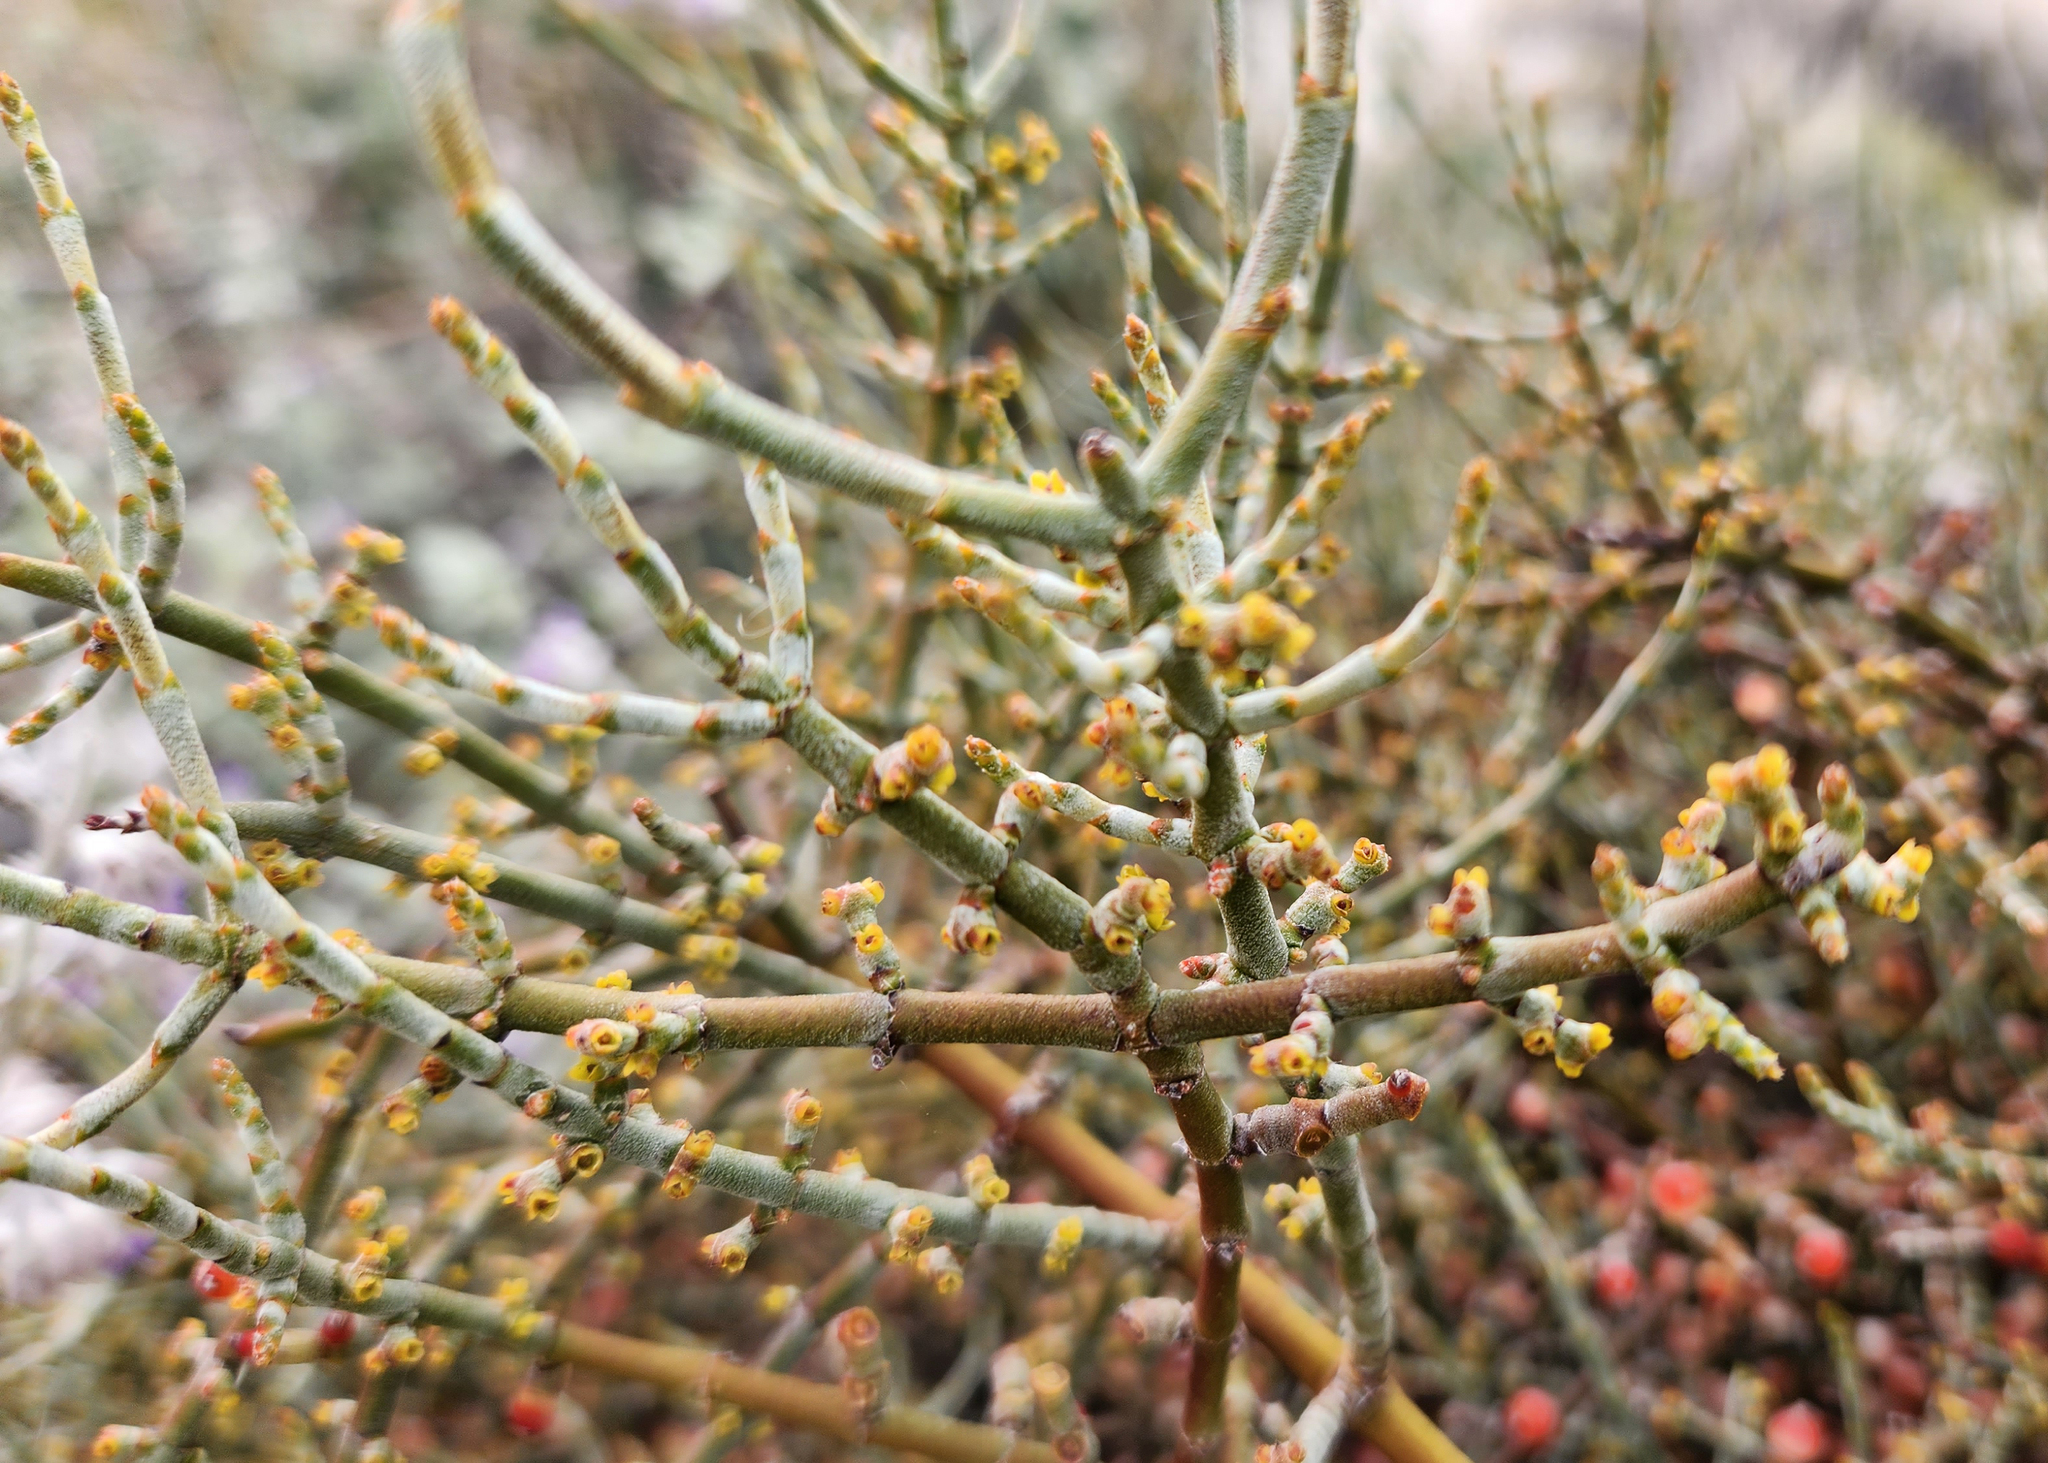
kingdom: Plantae
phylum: Tracheophyta
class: Magnoliopsida
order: Santalales
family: Viscaceae
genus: Phoradendron
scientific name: Phoradendron californicum
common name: Acacia mistletoe
